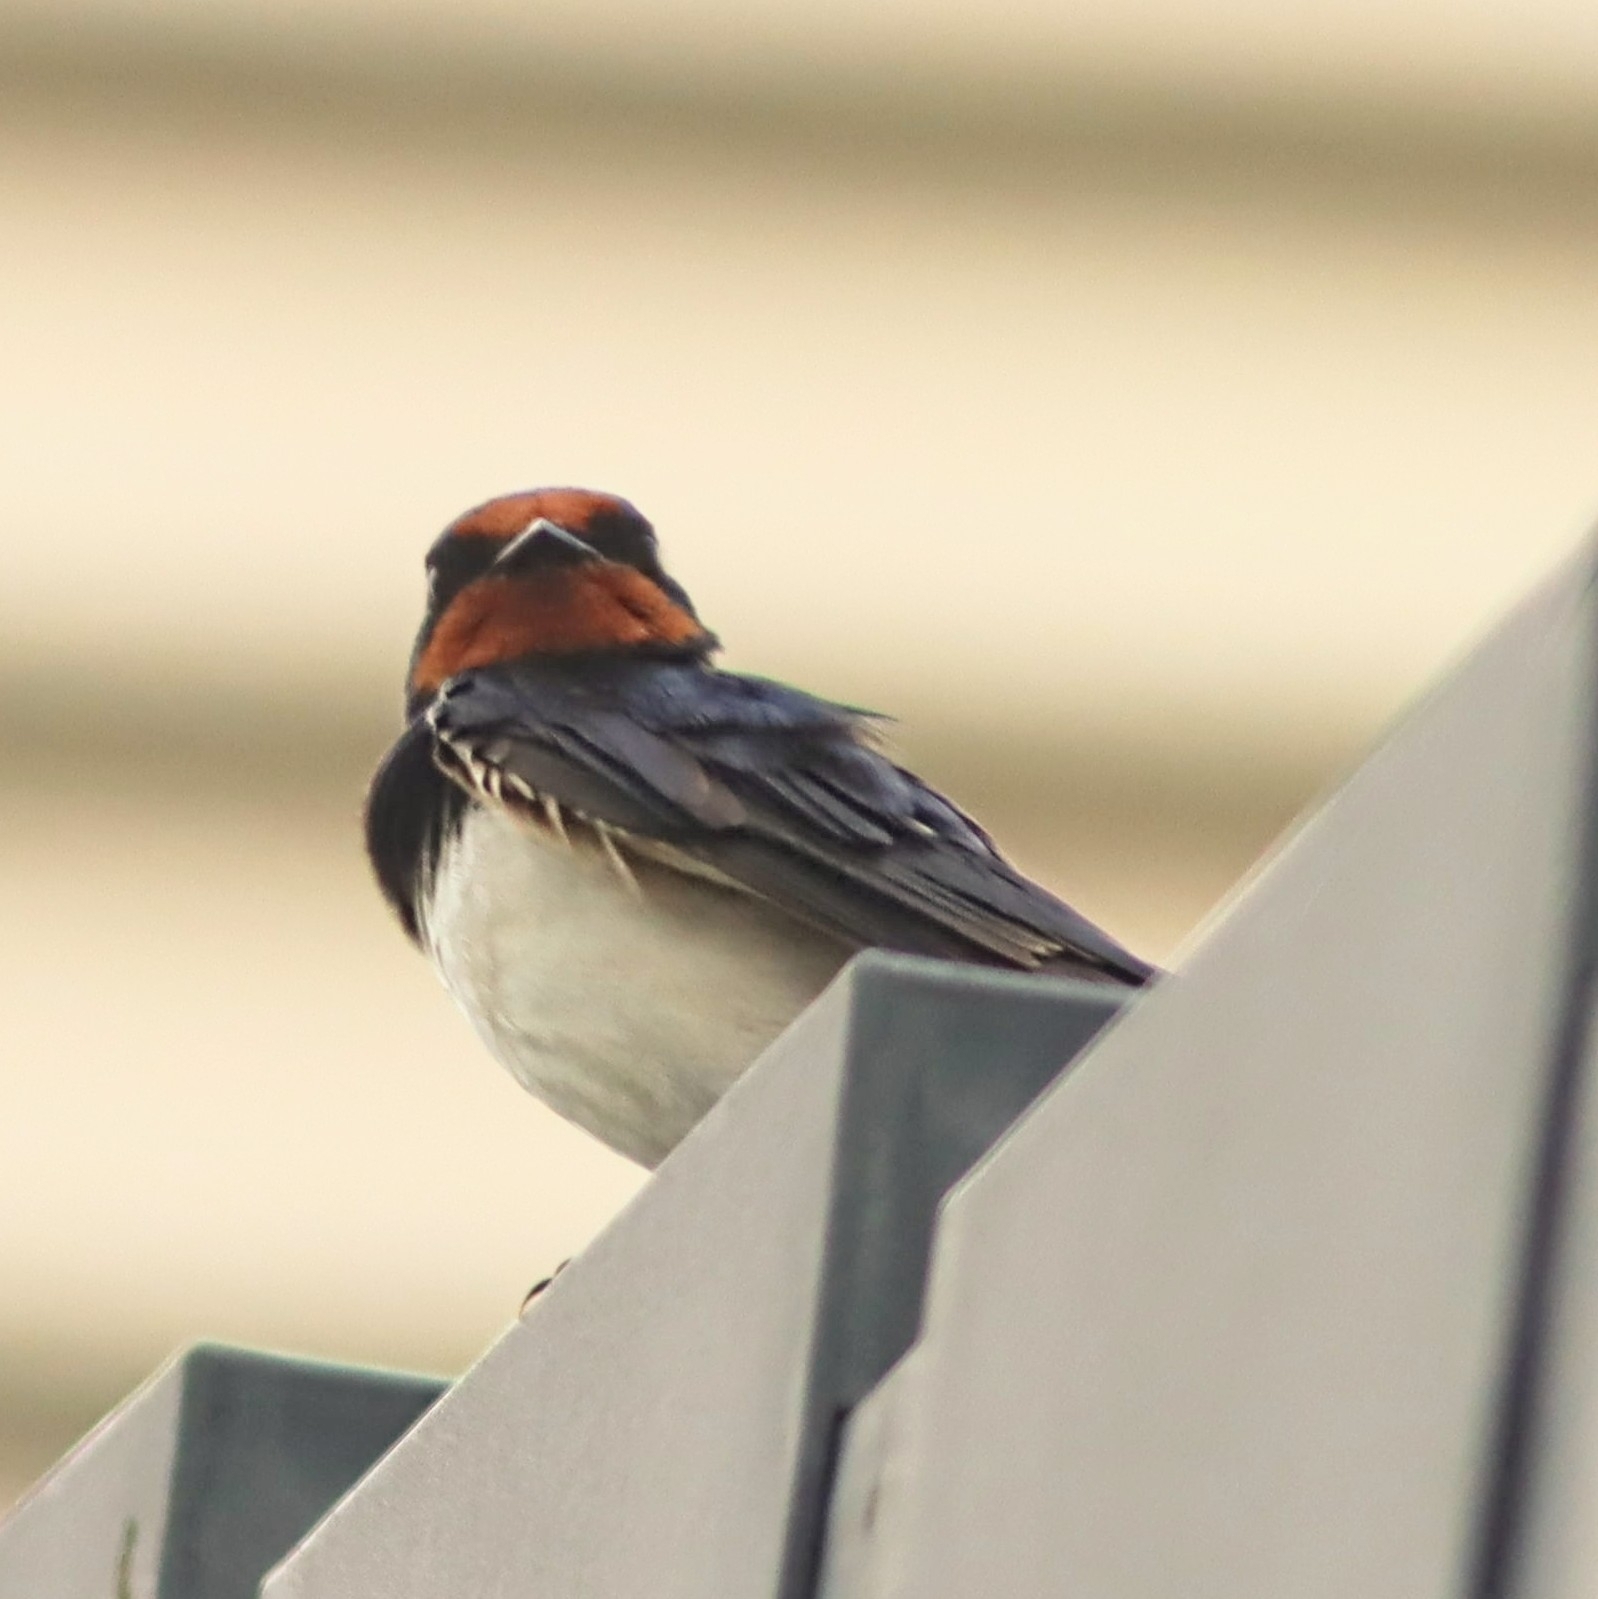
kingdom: Animalia
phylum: Chordata
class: Aves
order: Passeriformes
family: Hirundinidae
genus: Hirundo
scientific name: Hirundo rustica
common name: Barn swallow
